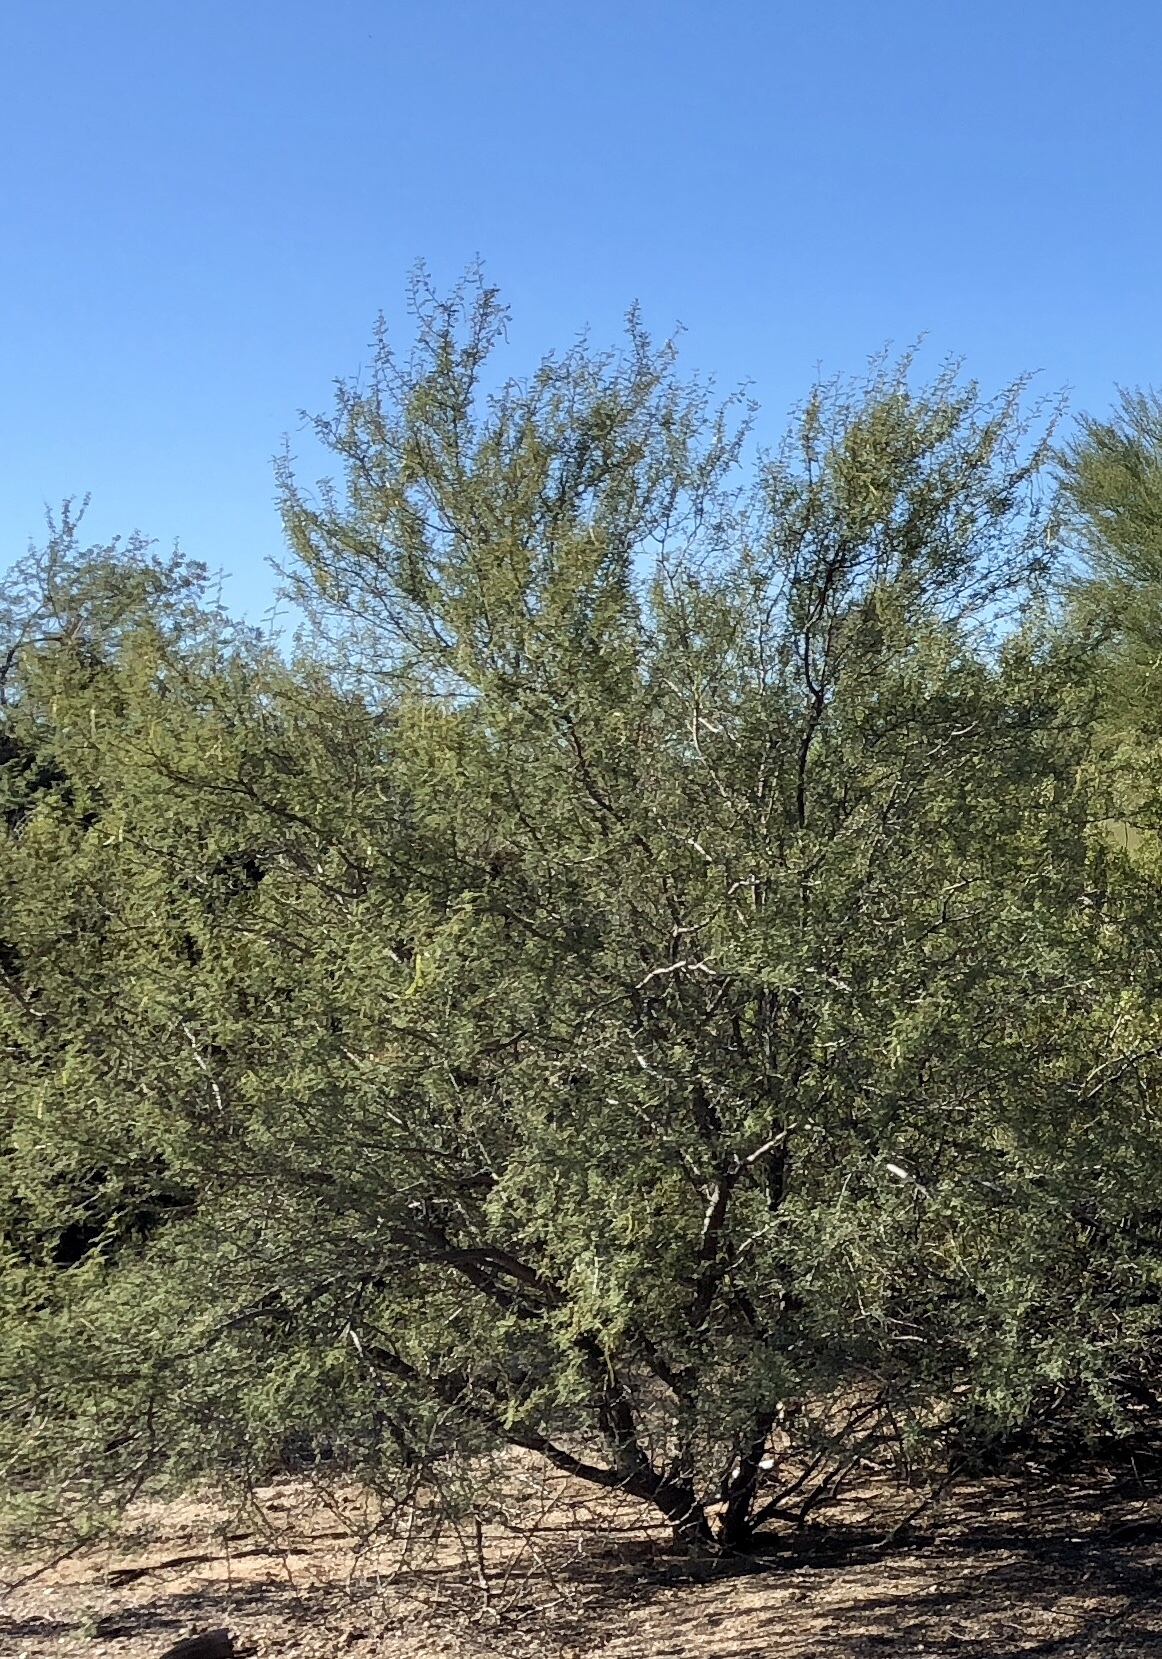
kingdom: Plantae
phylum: Tracheophyta
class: Magnoliopsida
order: Fabales
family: Fabaceae
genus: Prosopis
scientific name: Prosopis velutina
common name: Velvet mesquite
